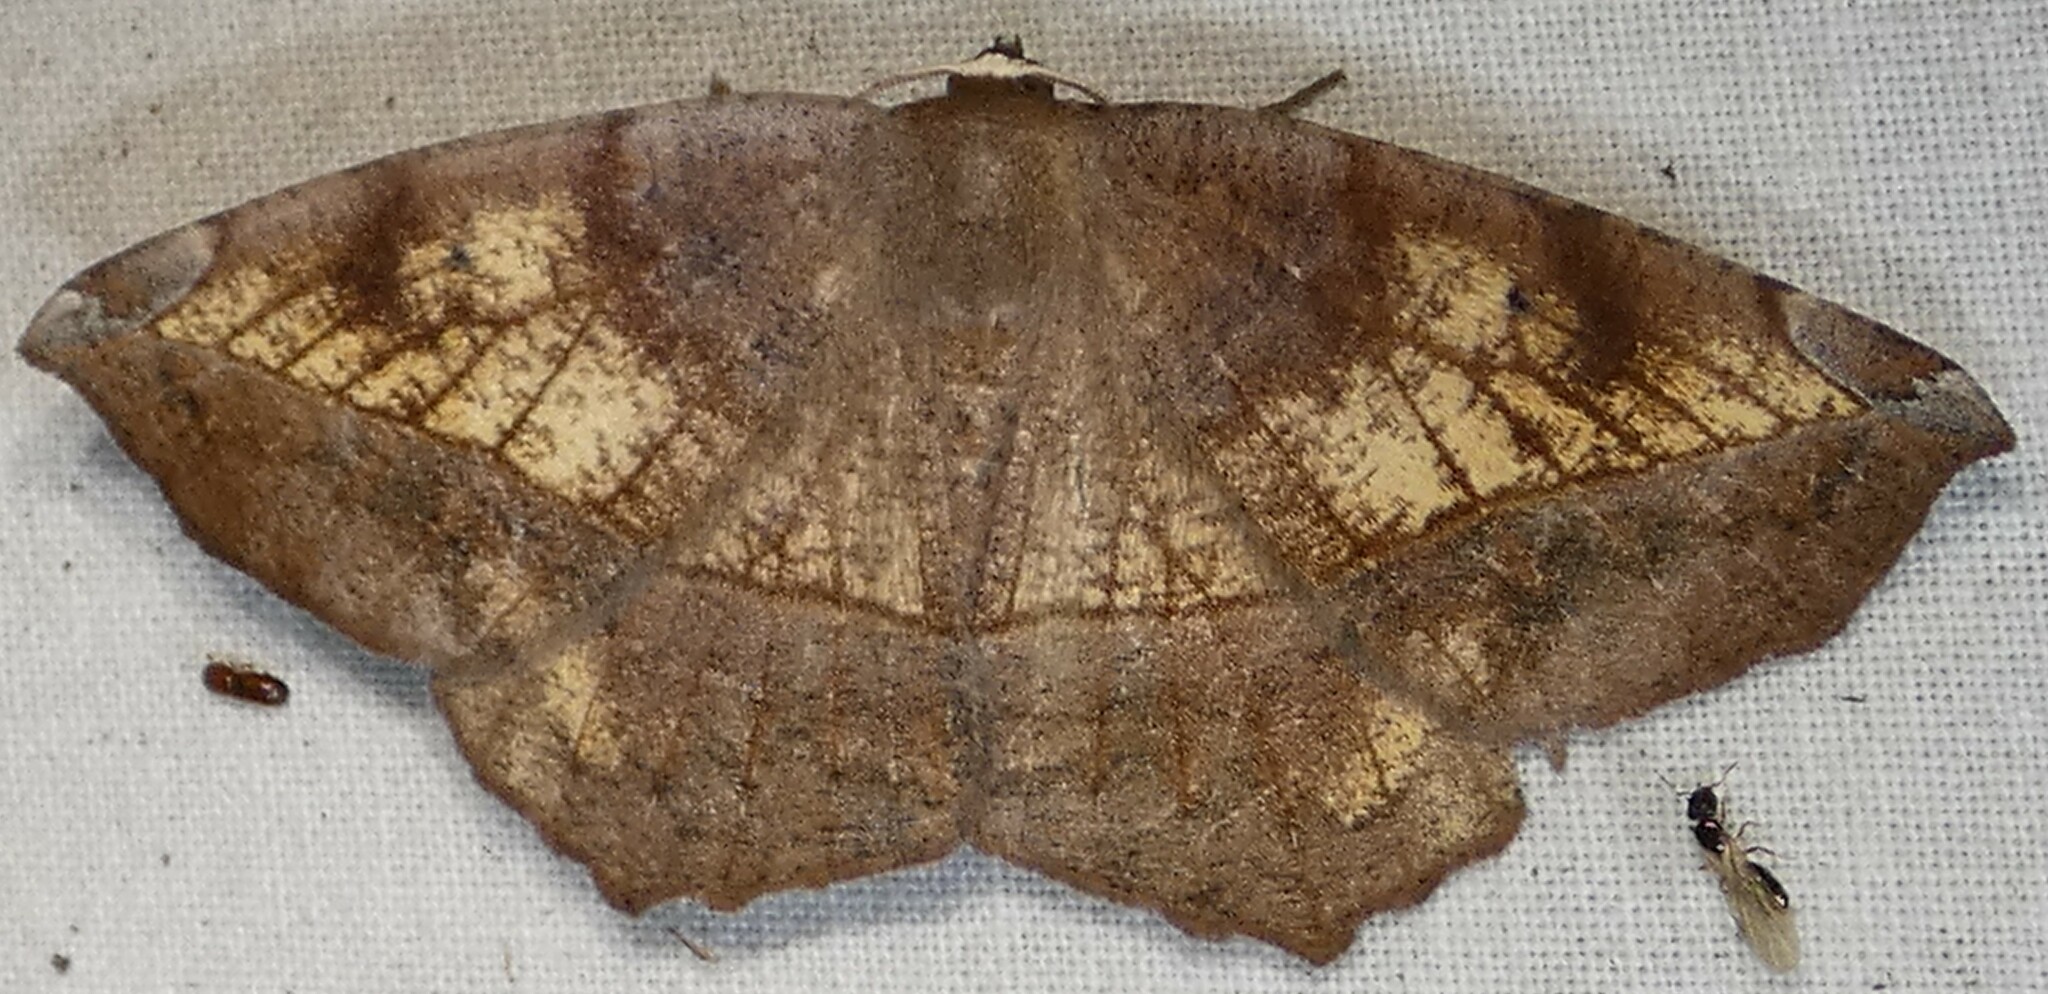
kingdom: Animalia
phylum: Arthropoda
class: Insecta
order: Lepidoptera
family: Geometridae
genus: Eutrapela
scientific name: Eutrapela clemataria
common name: Curved-toothed geometer
